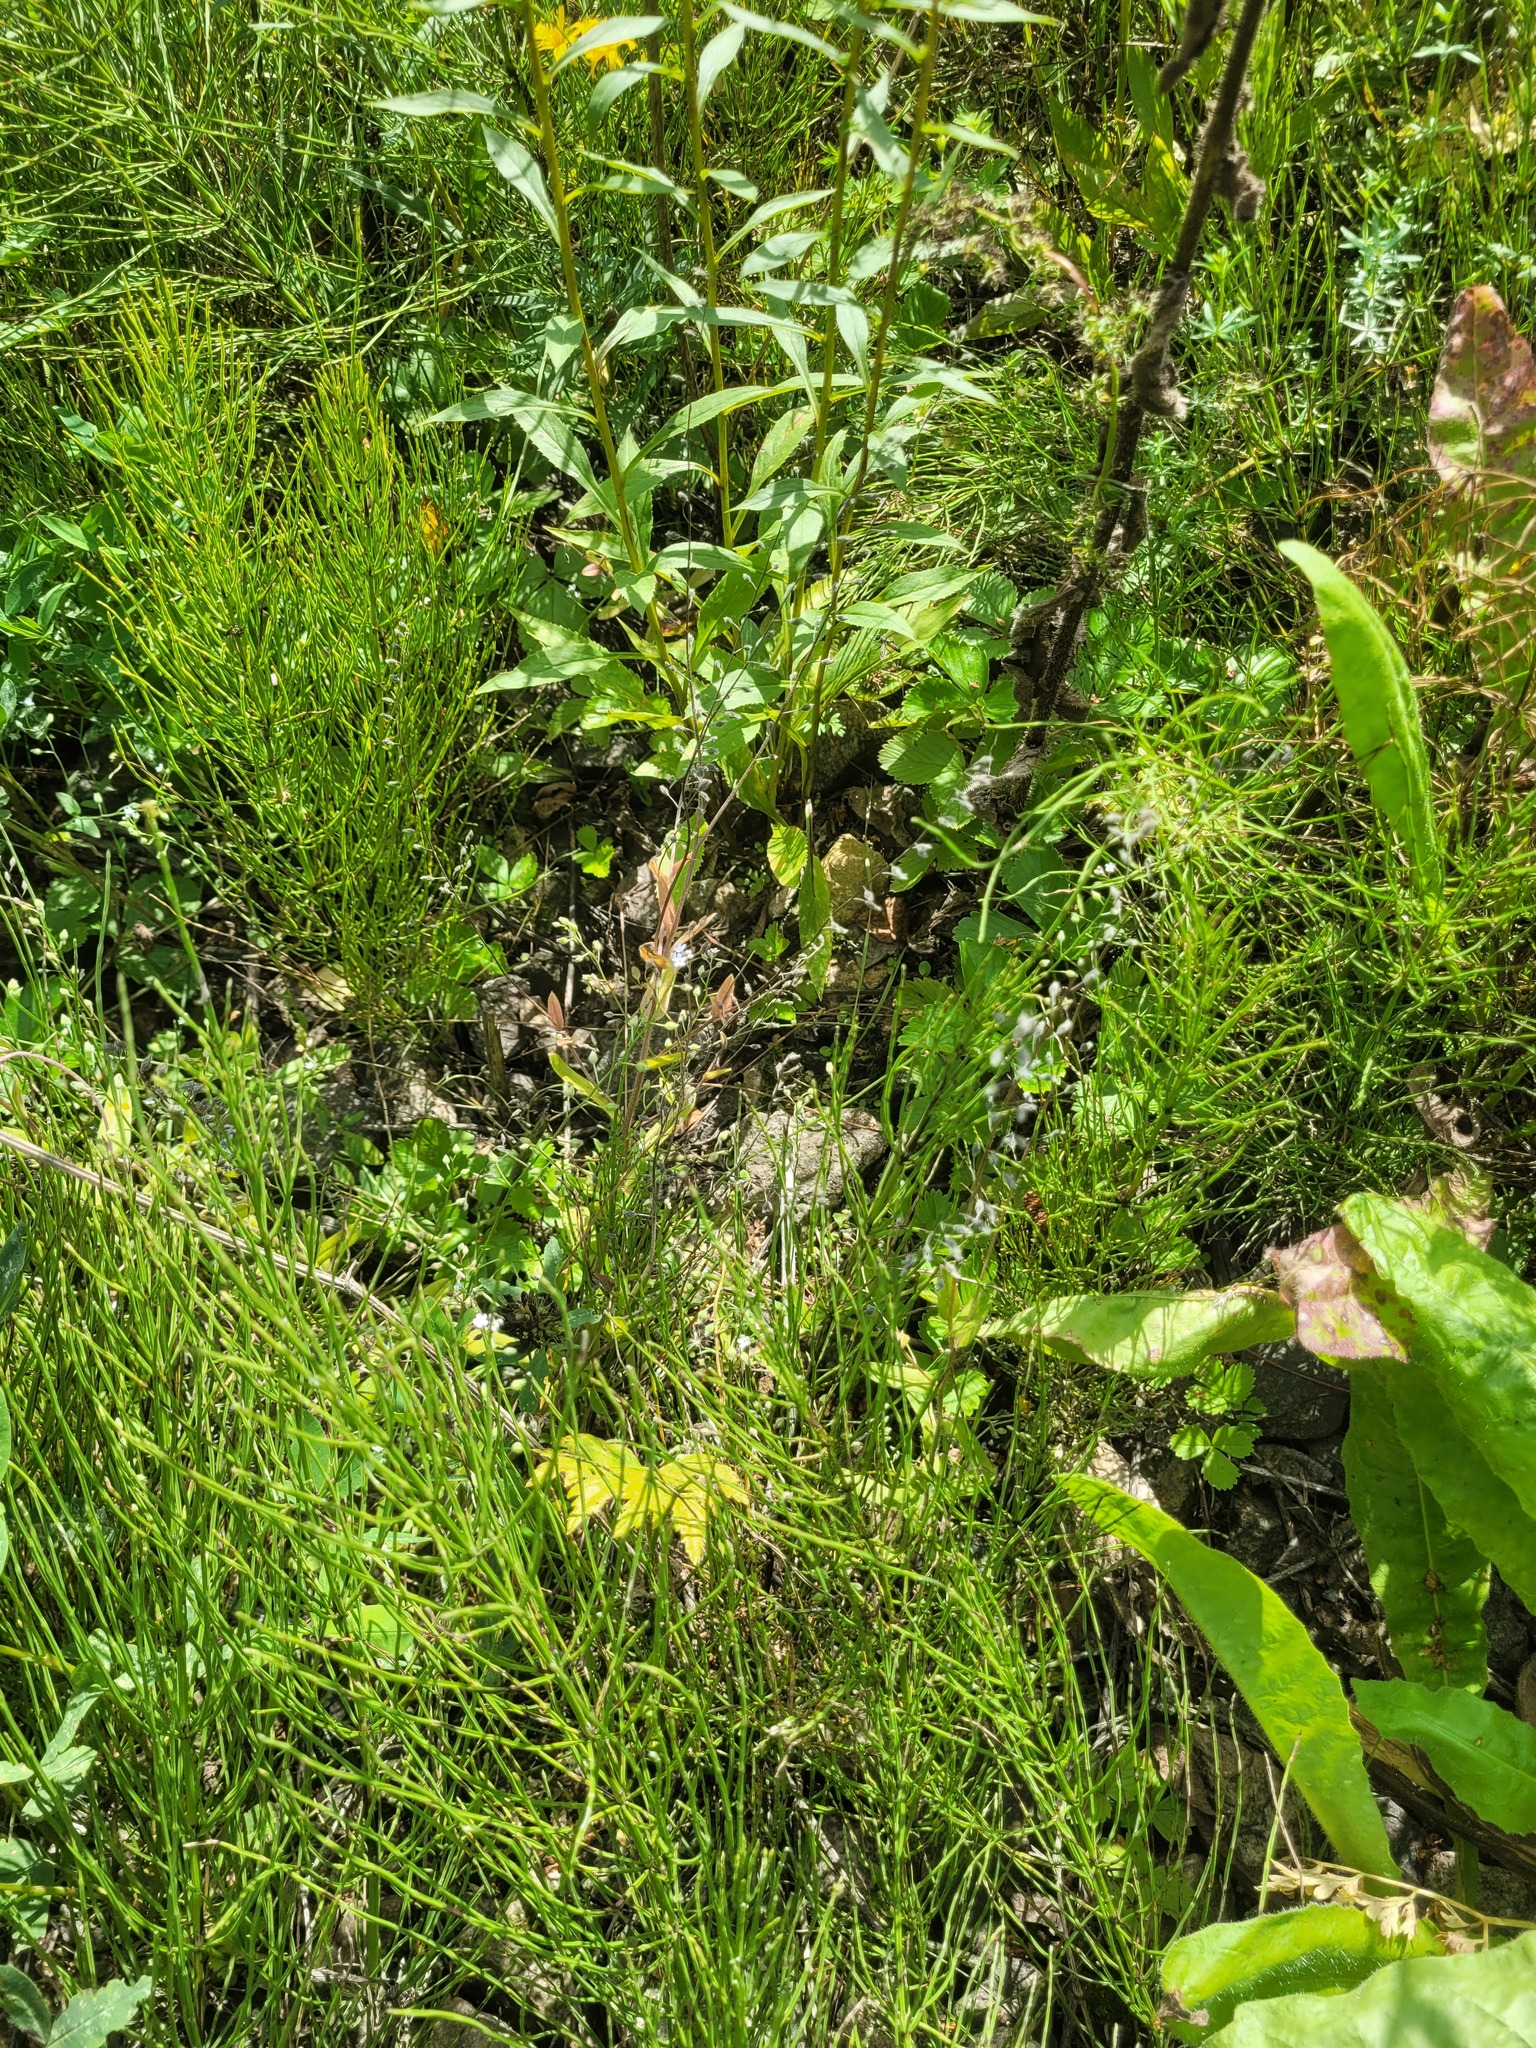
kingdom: Plantae
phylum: Tracheophyta
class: Magnoliopsida
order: Boraginales
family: Boraginaceae
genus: Myosotis
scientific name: Myosotis arvensis
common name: Field forget-me-not
